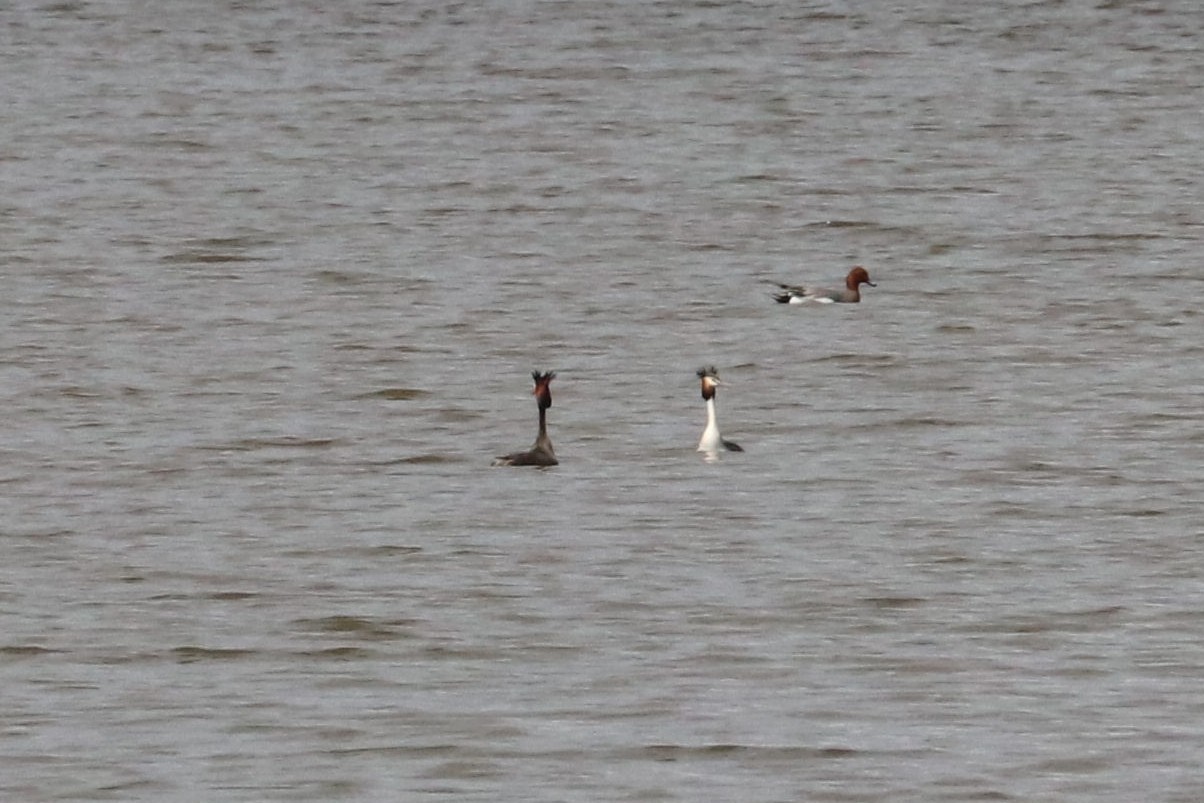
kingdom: Animalia
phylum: Chordata
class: Aves
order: Podicipediformes
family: Podicipedidae
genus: Podiceps
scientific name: Podiceps cristatus
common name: Great crested grebe
